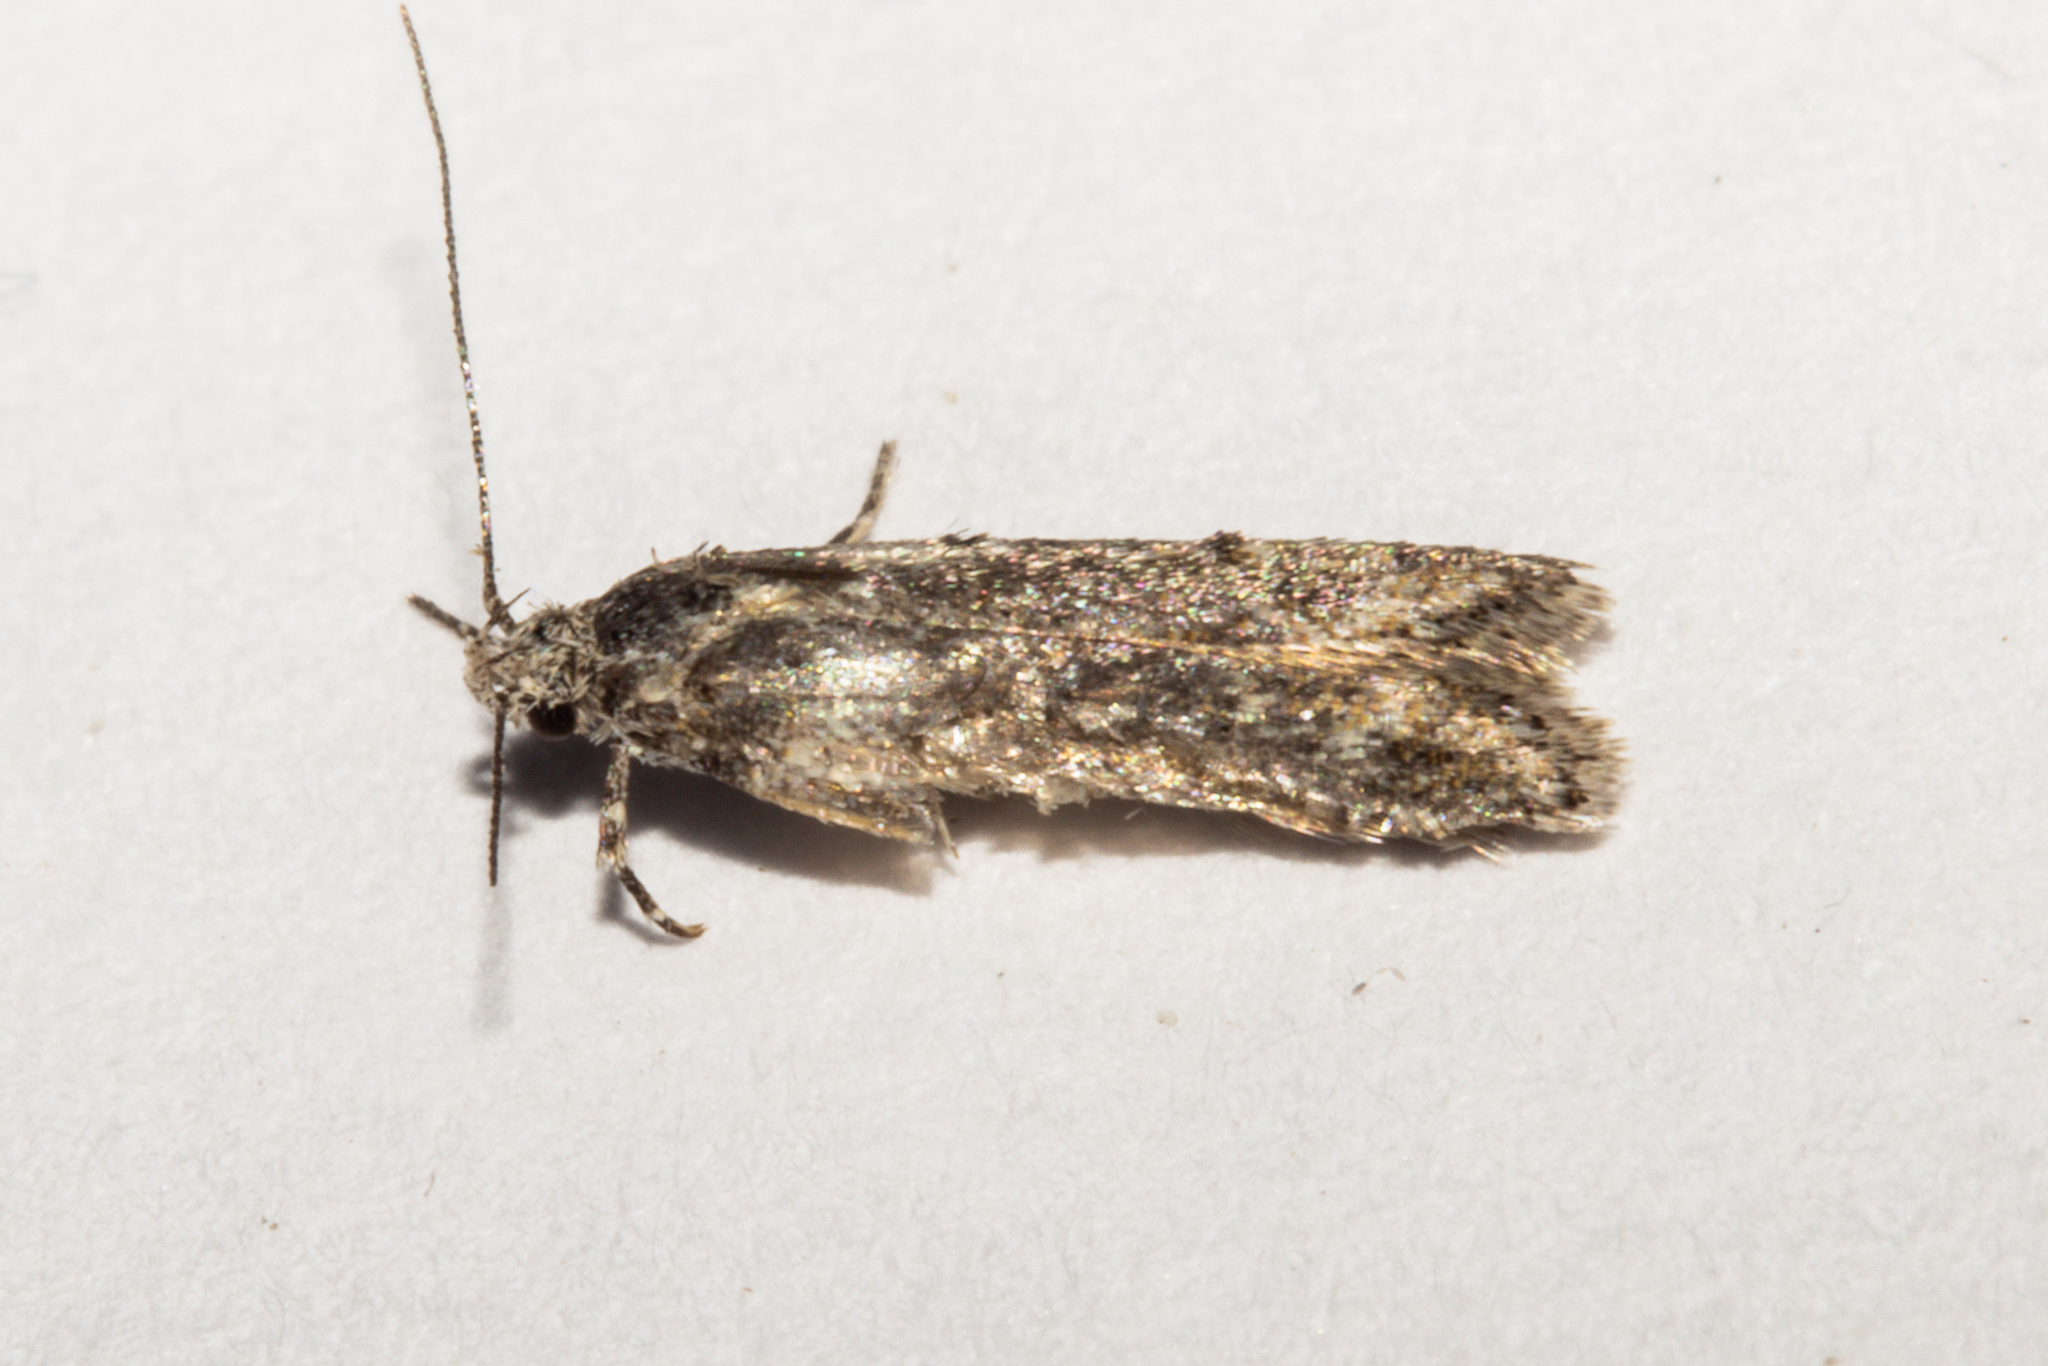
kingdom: Animalia
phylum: Arthropoda
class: Insecta
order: Lepidoptera
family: Oecophoridae
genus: Izatha
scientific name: Izatha convulsella
